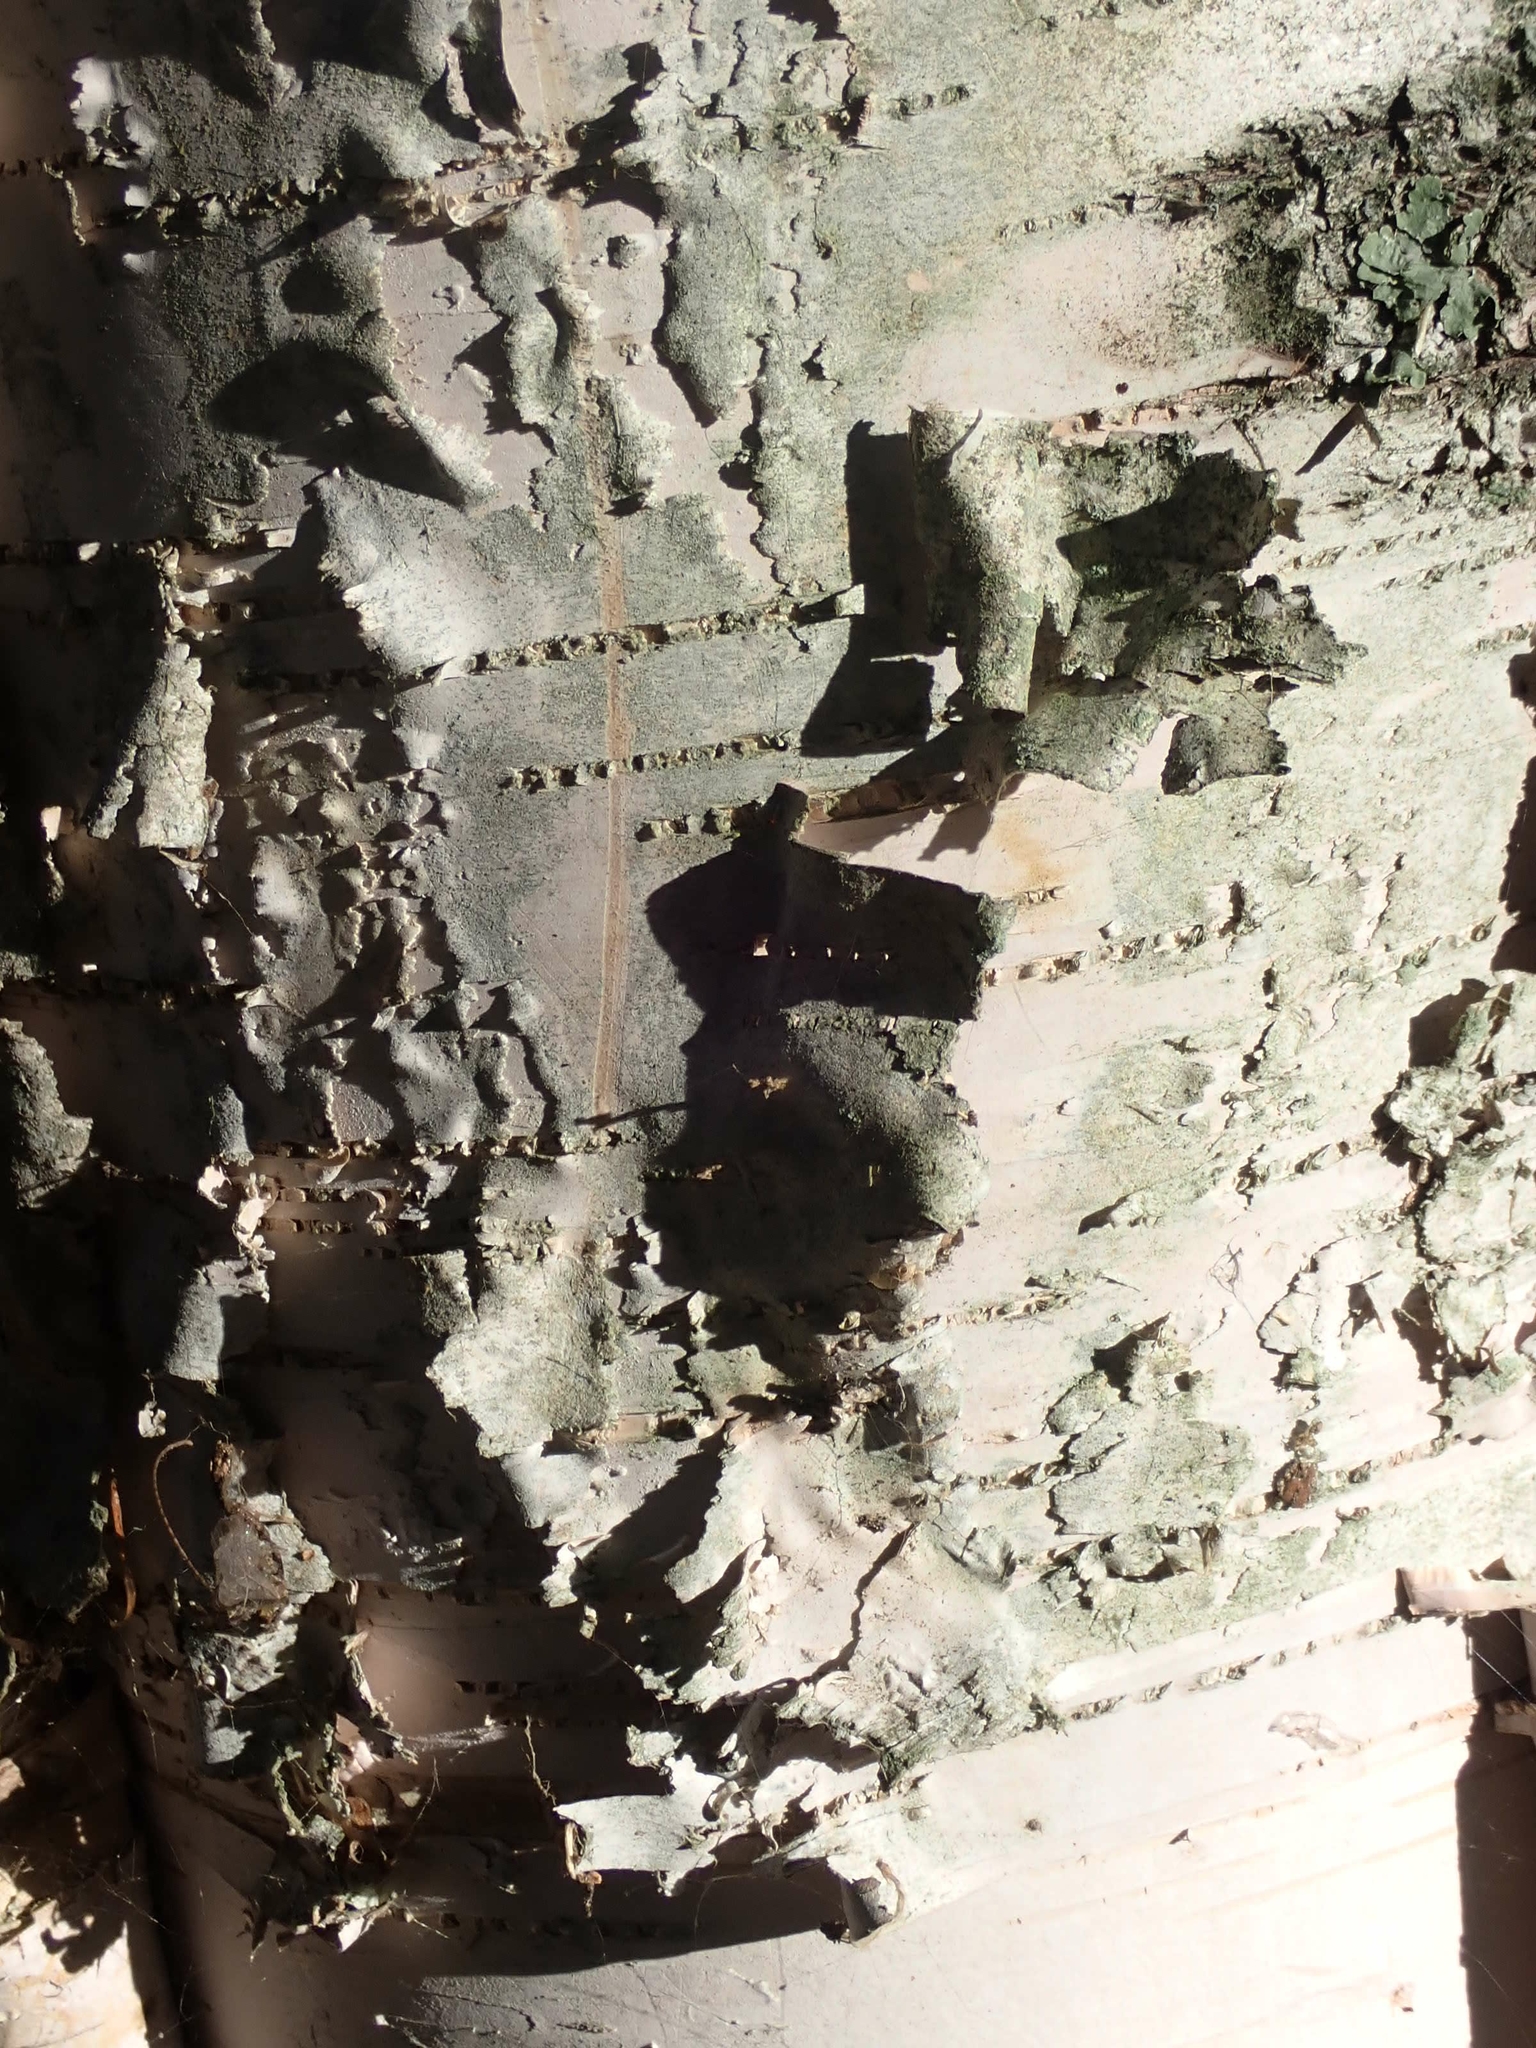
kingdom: Plantae
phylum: Tracheophyta
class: Magnoliopsida
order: Fagales
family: Betulaceae
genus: Betula
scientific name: Betula papyrifera
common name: Paper birch
